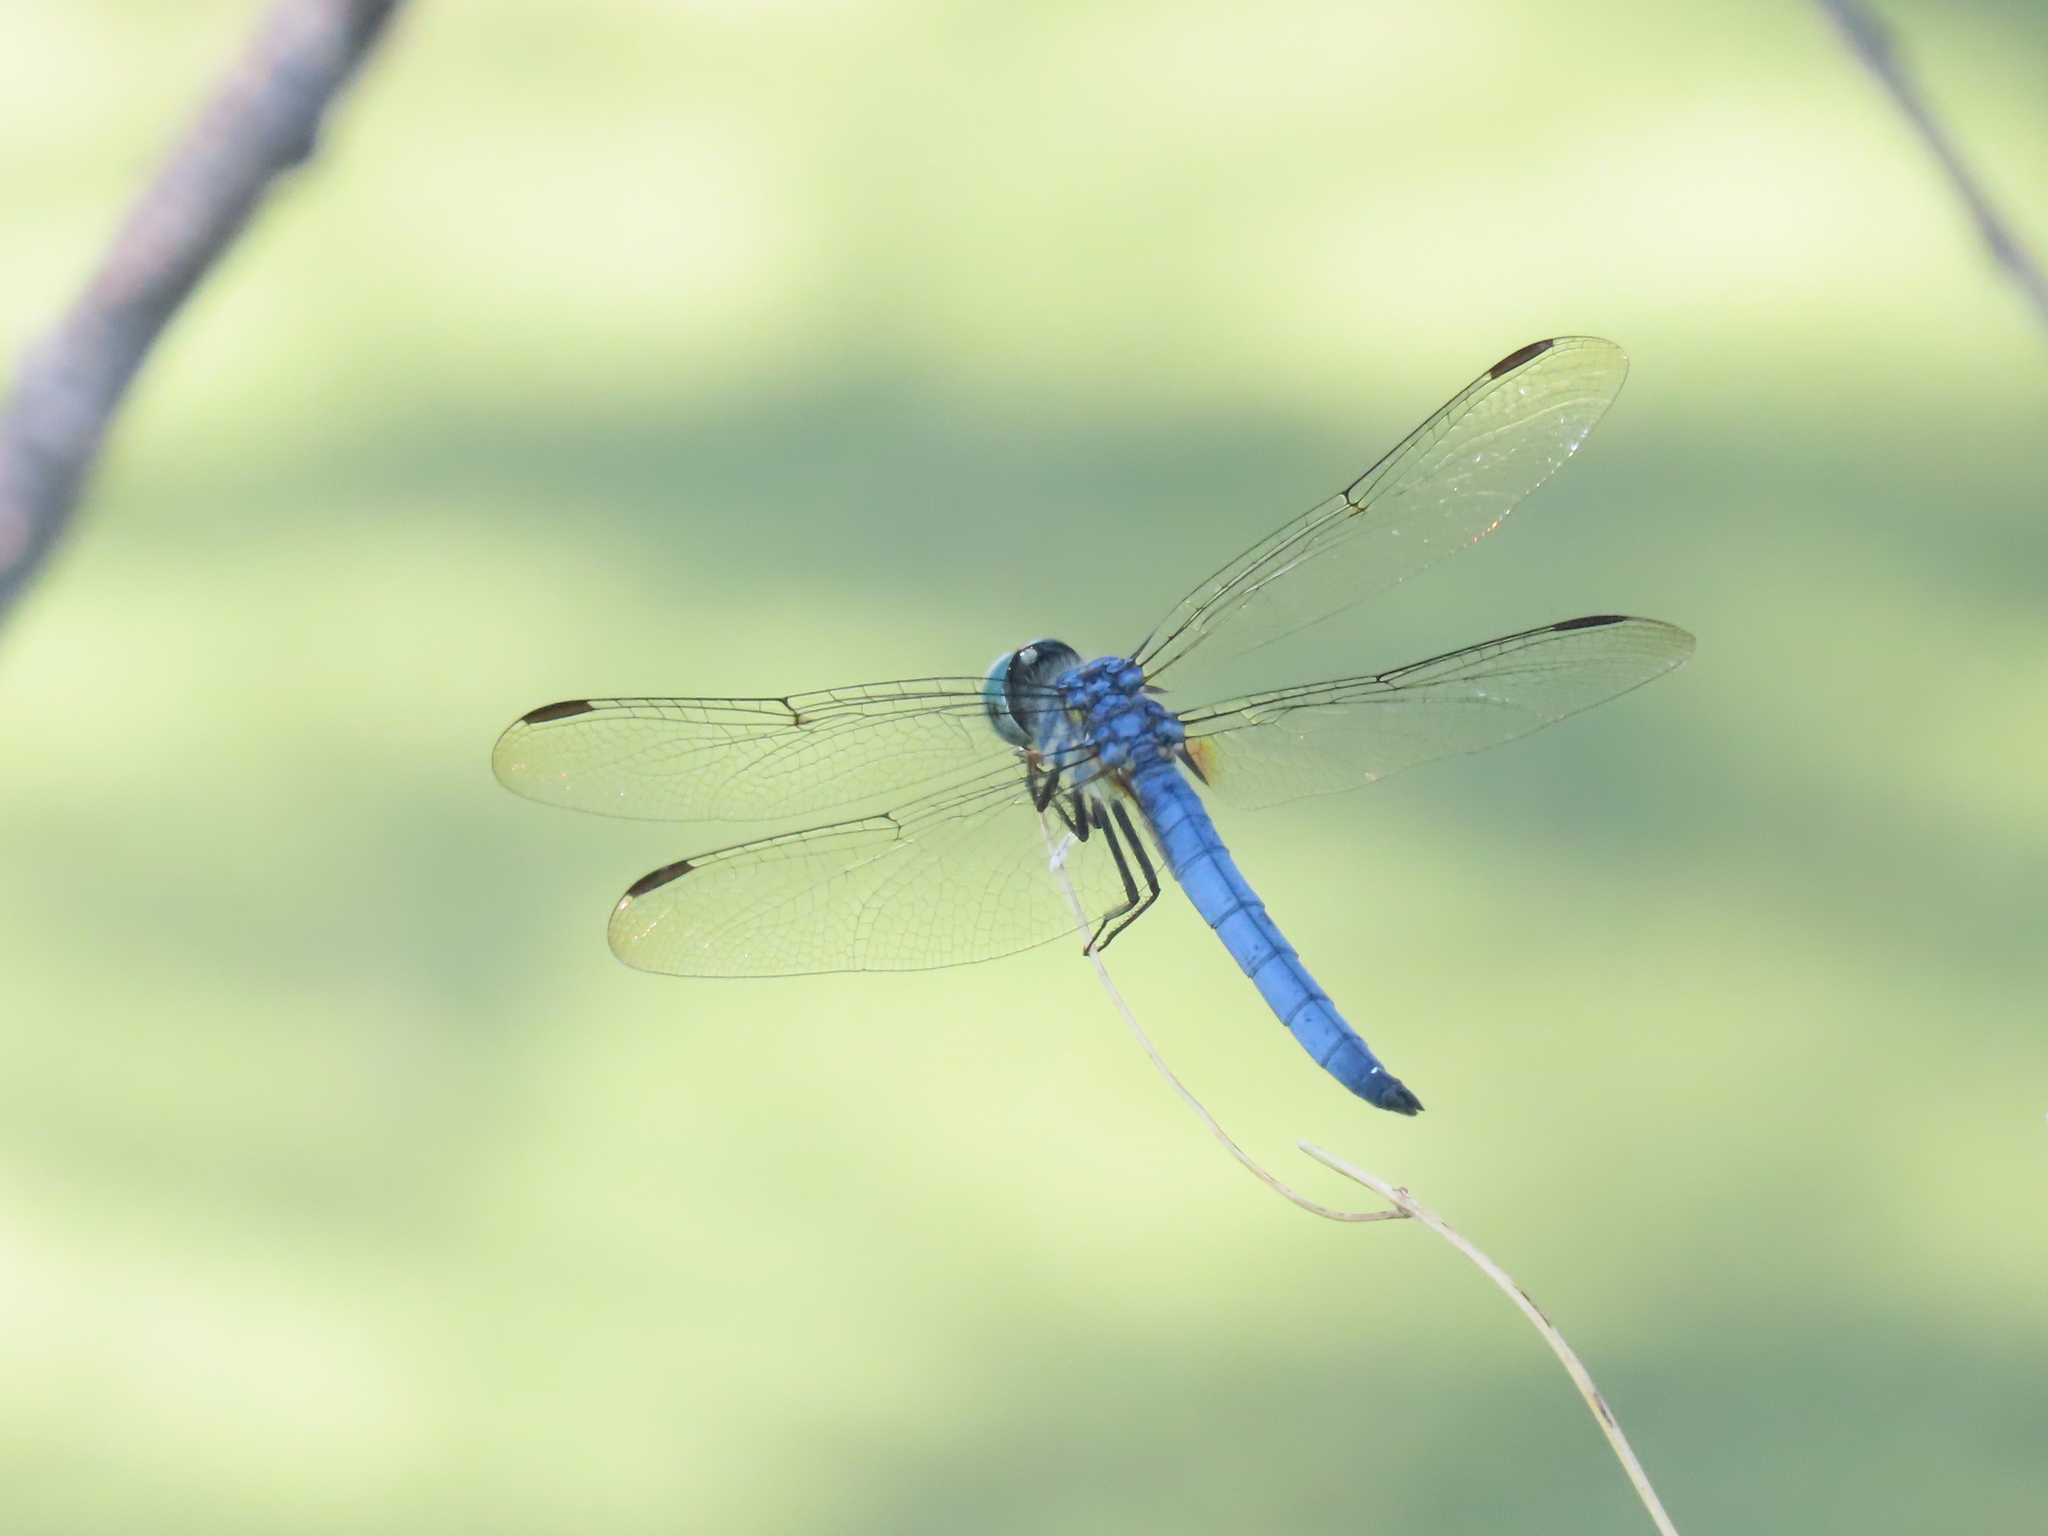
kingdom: Animalia
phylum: Arthropoda
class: Insecta
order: Odonata
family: Libellulidae
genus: Pachydiplax
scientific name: Pachydiplax longipennis
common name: Blue dasher
